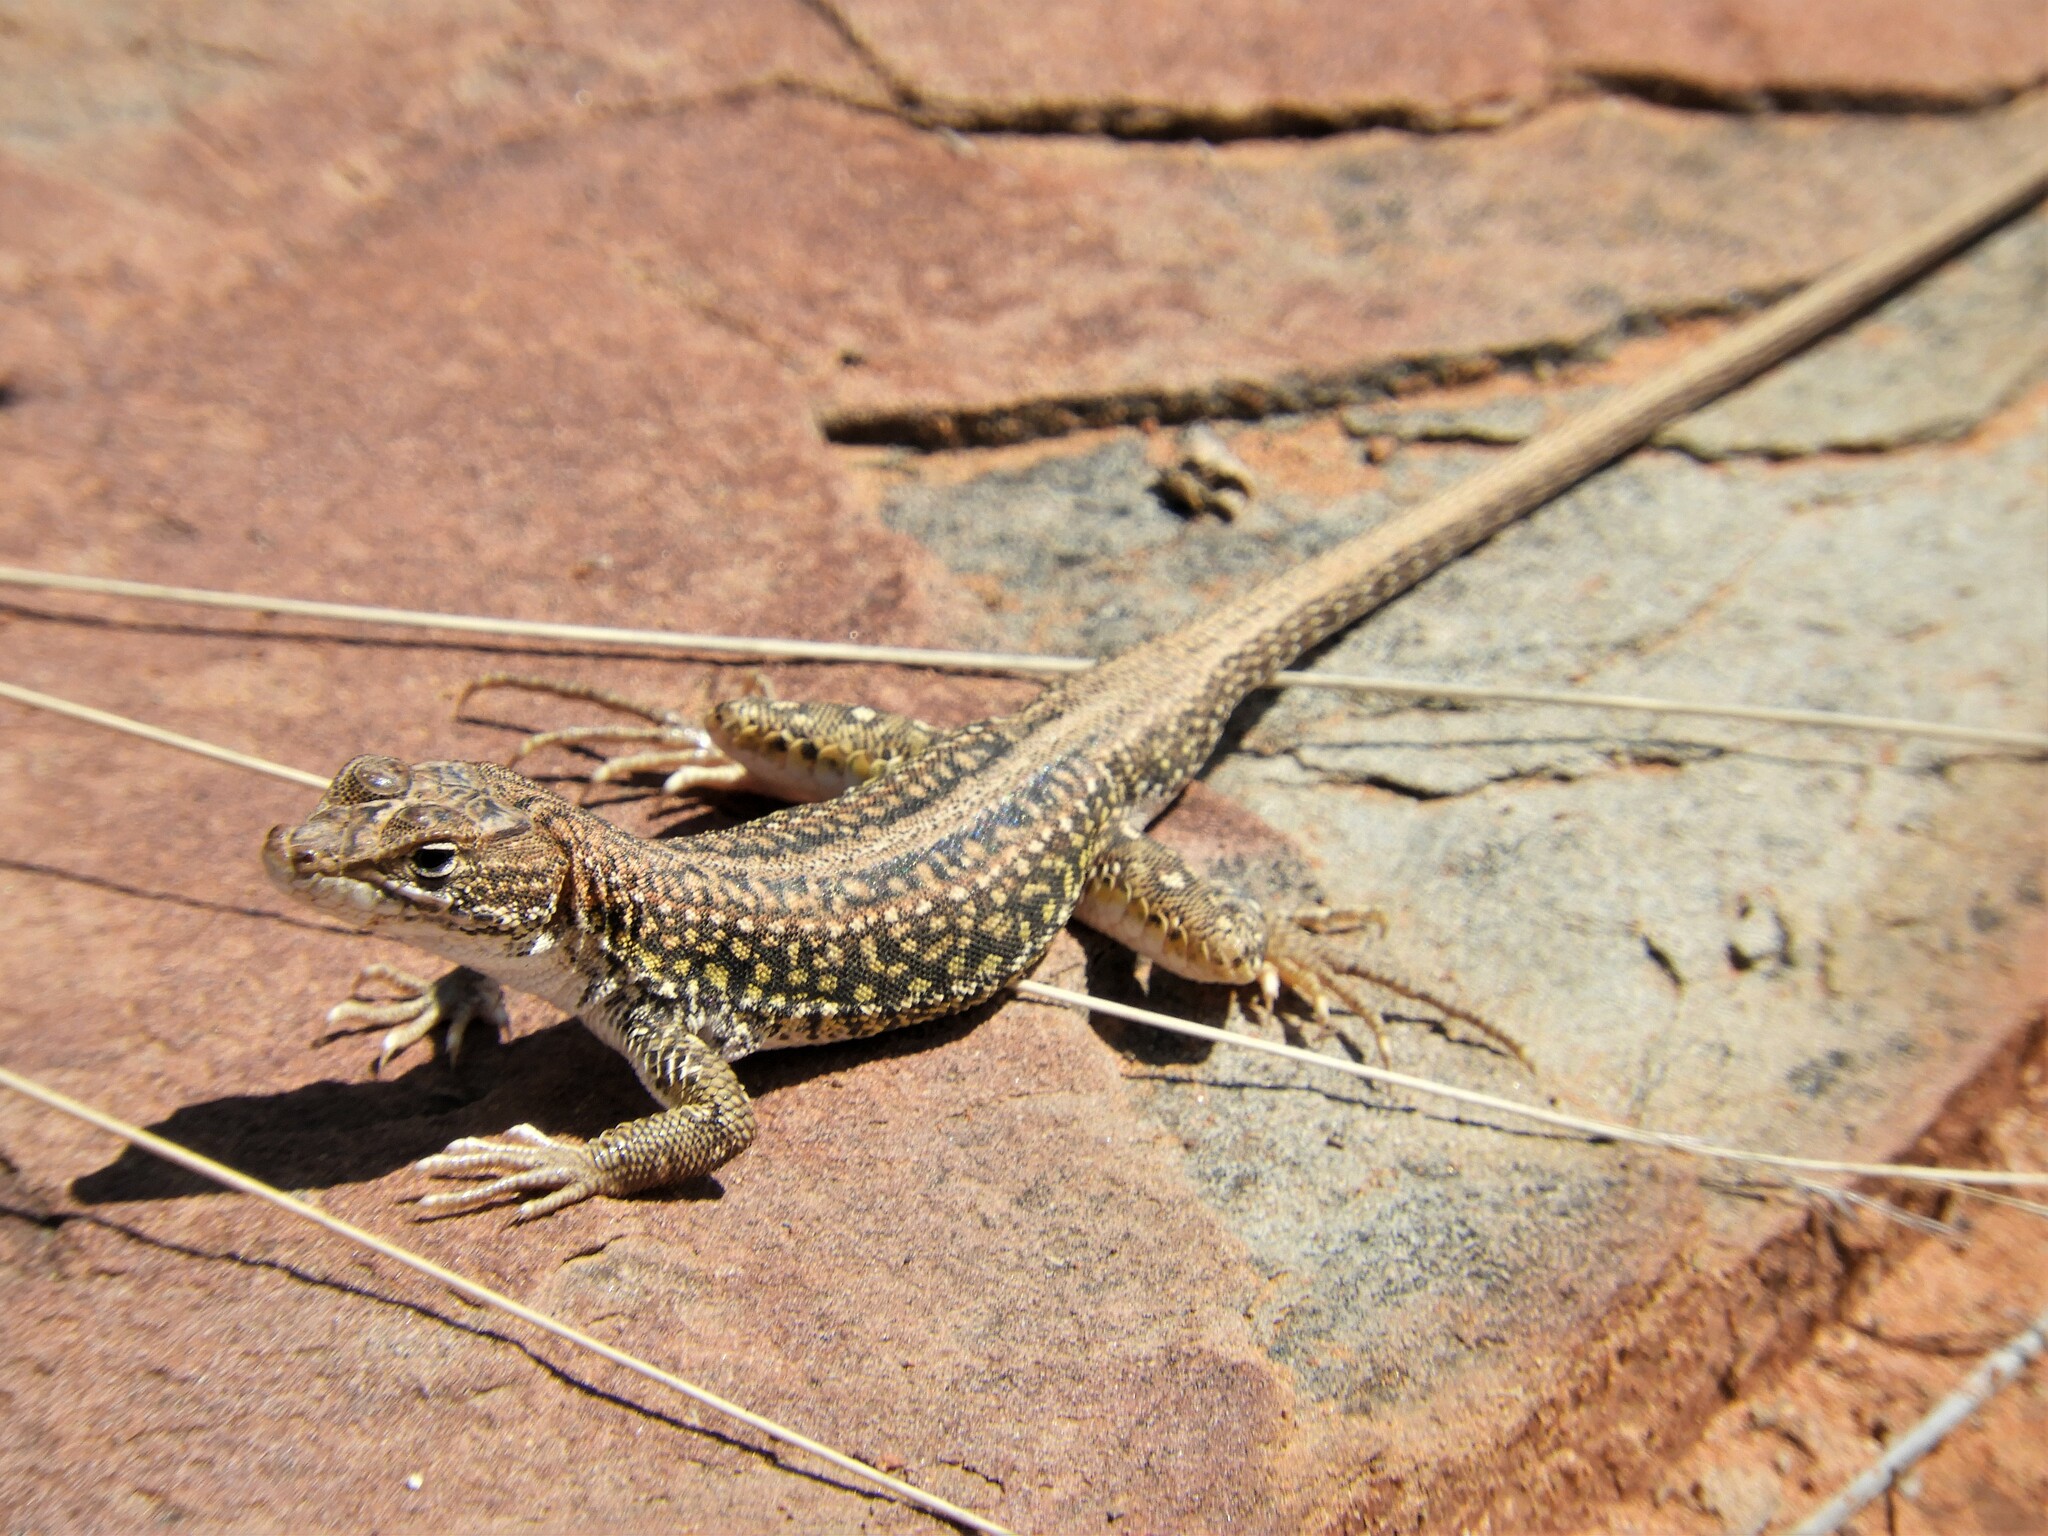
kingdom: Animalia
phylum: Chordata
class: Squamata
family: Lacertidae
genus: Pedioplanis
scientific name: Pedioplanis laticeps
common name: Karoo sand lizard
